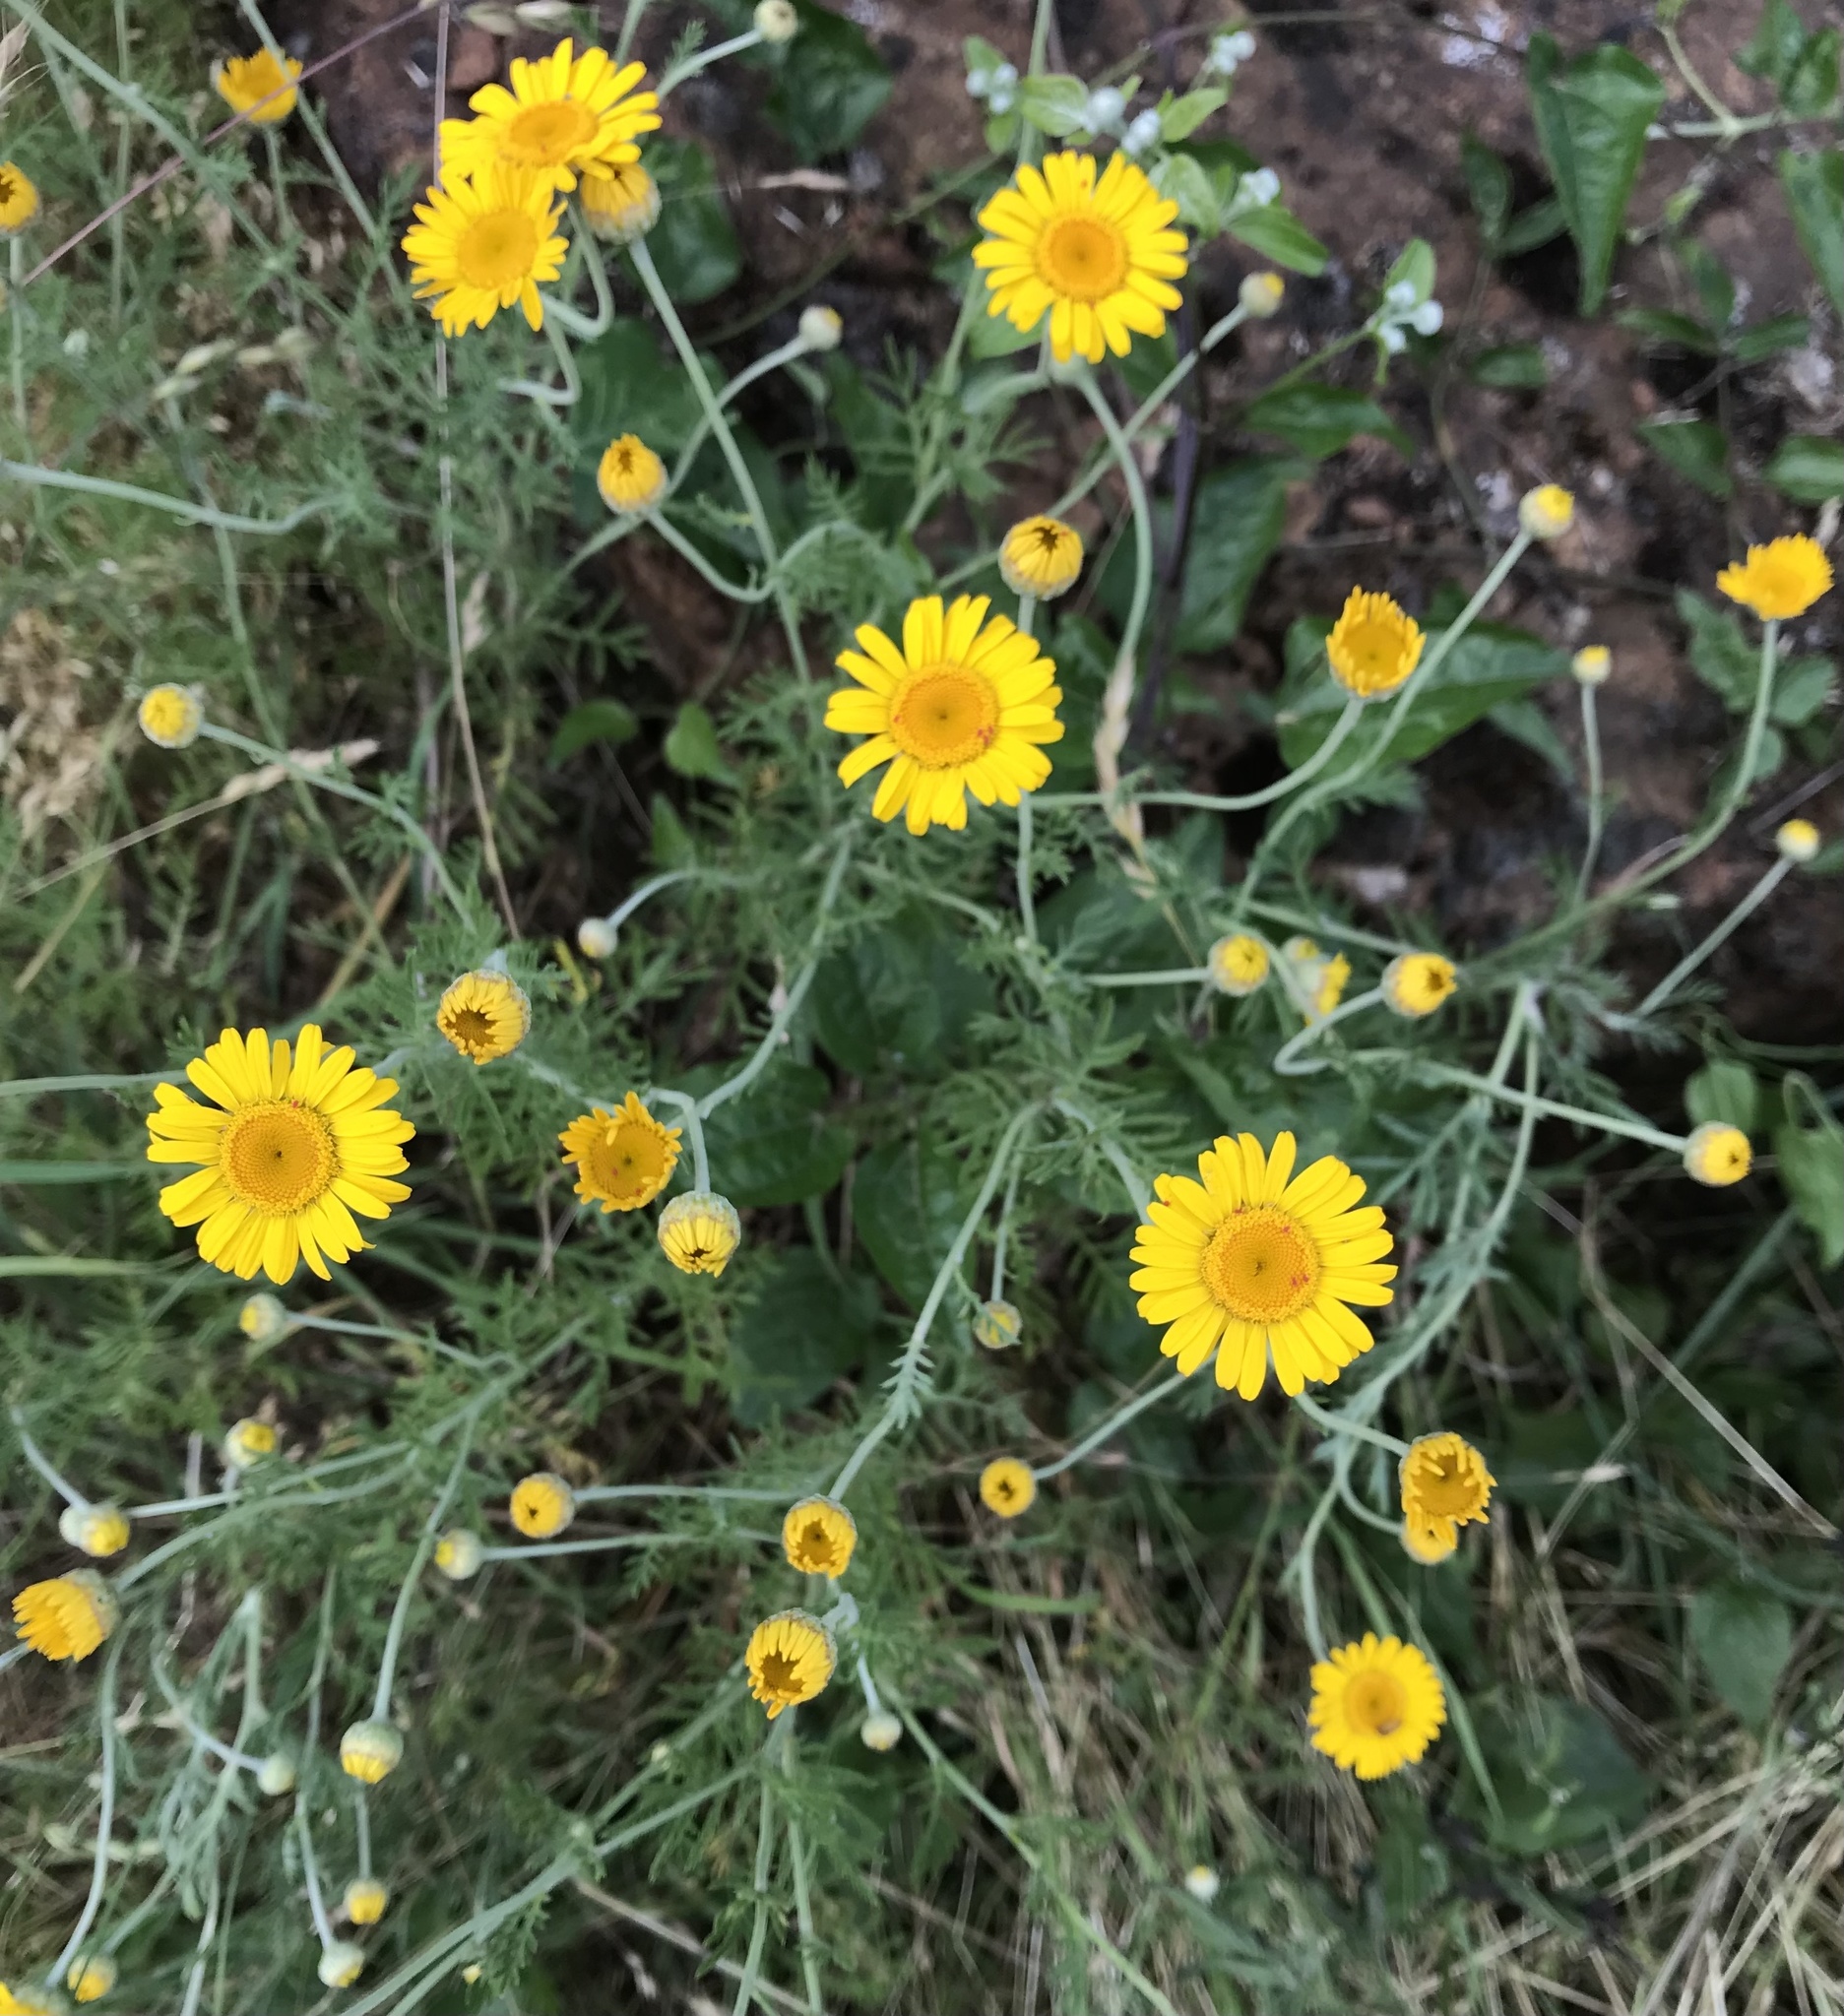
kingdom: Plantae
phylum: Tracheophyta
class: Magnoliopsida
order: Asterales
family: Asteraceae
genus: Cota
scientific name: Cota tinctoria
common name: Golden chamomile
